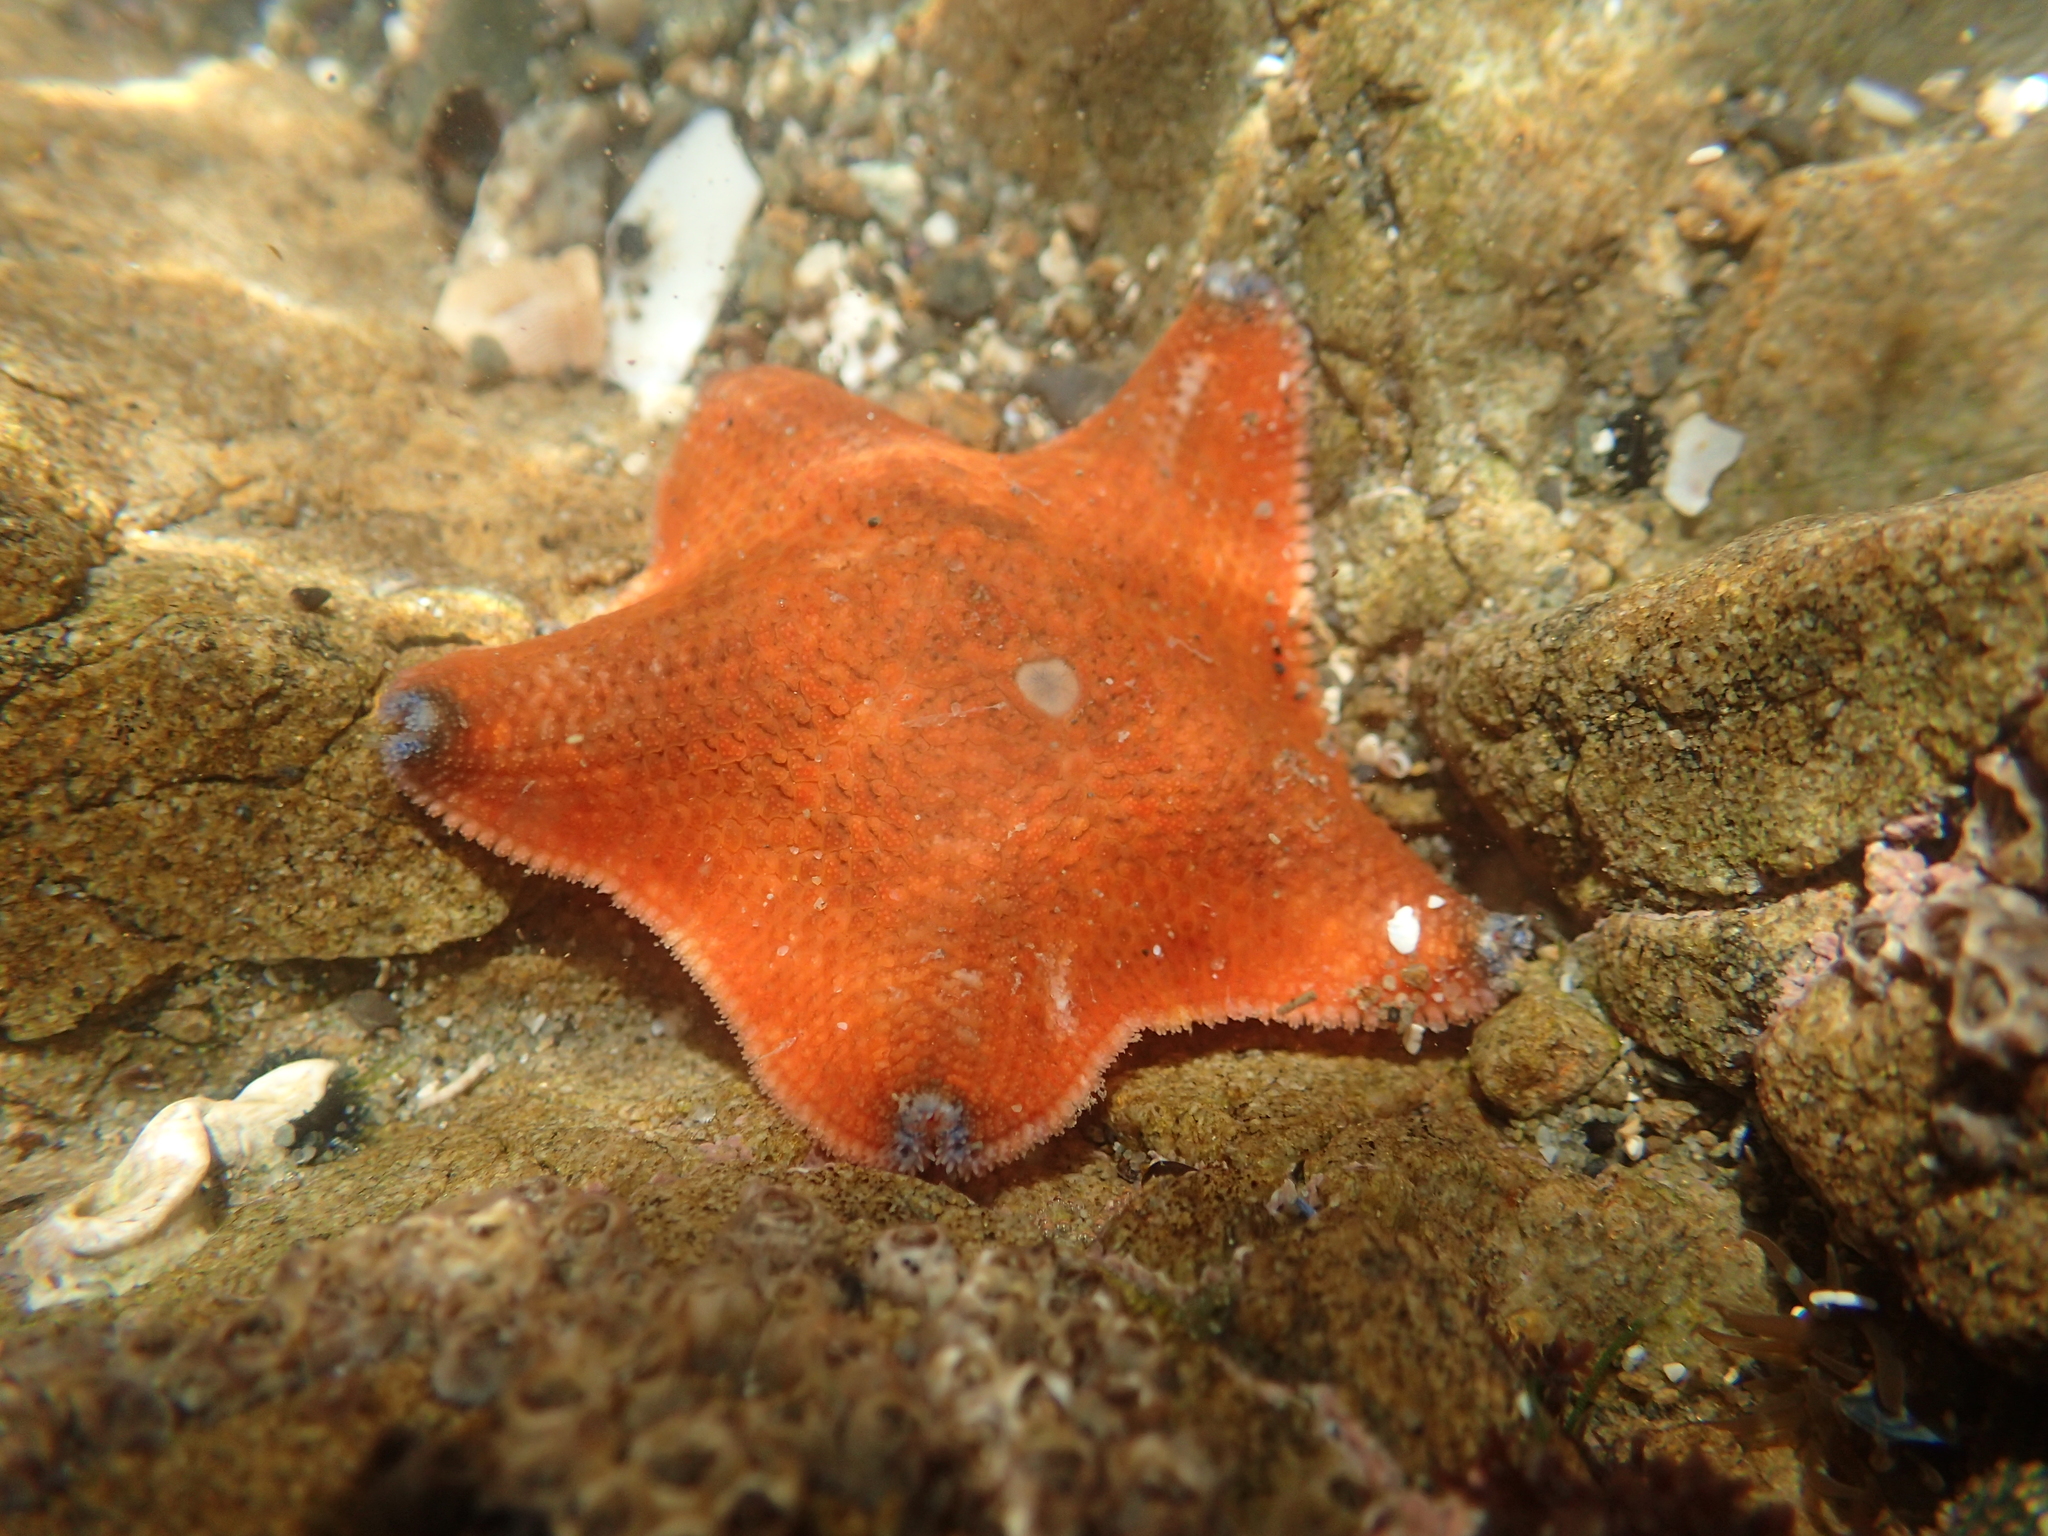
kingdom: Animalia
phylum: Echinodermata
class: Asteroidea
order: Valvatida
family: Asterinidae
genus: Patiriella
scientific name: Patiriella regularis
